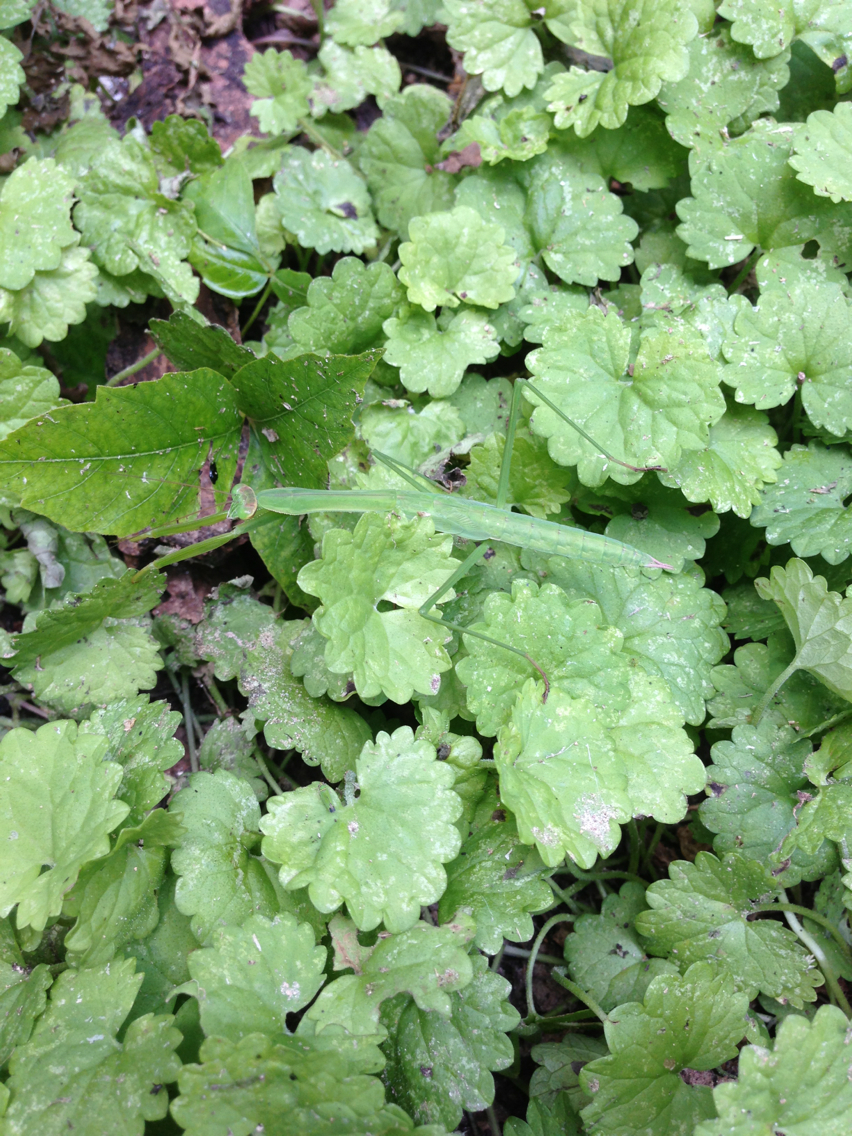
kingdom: Plantae
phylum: Tracheophyta
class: Magnoliopsida
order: Lamiales
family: Lamiaceae
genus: Glechoma
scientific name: Glechoma hederacea
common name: Ground ivy
